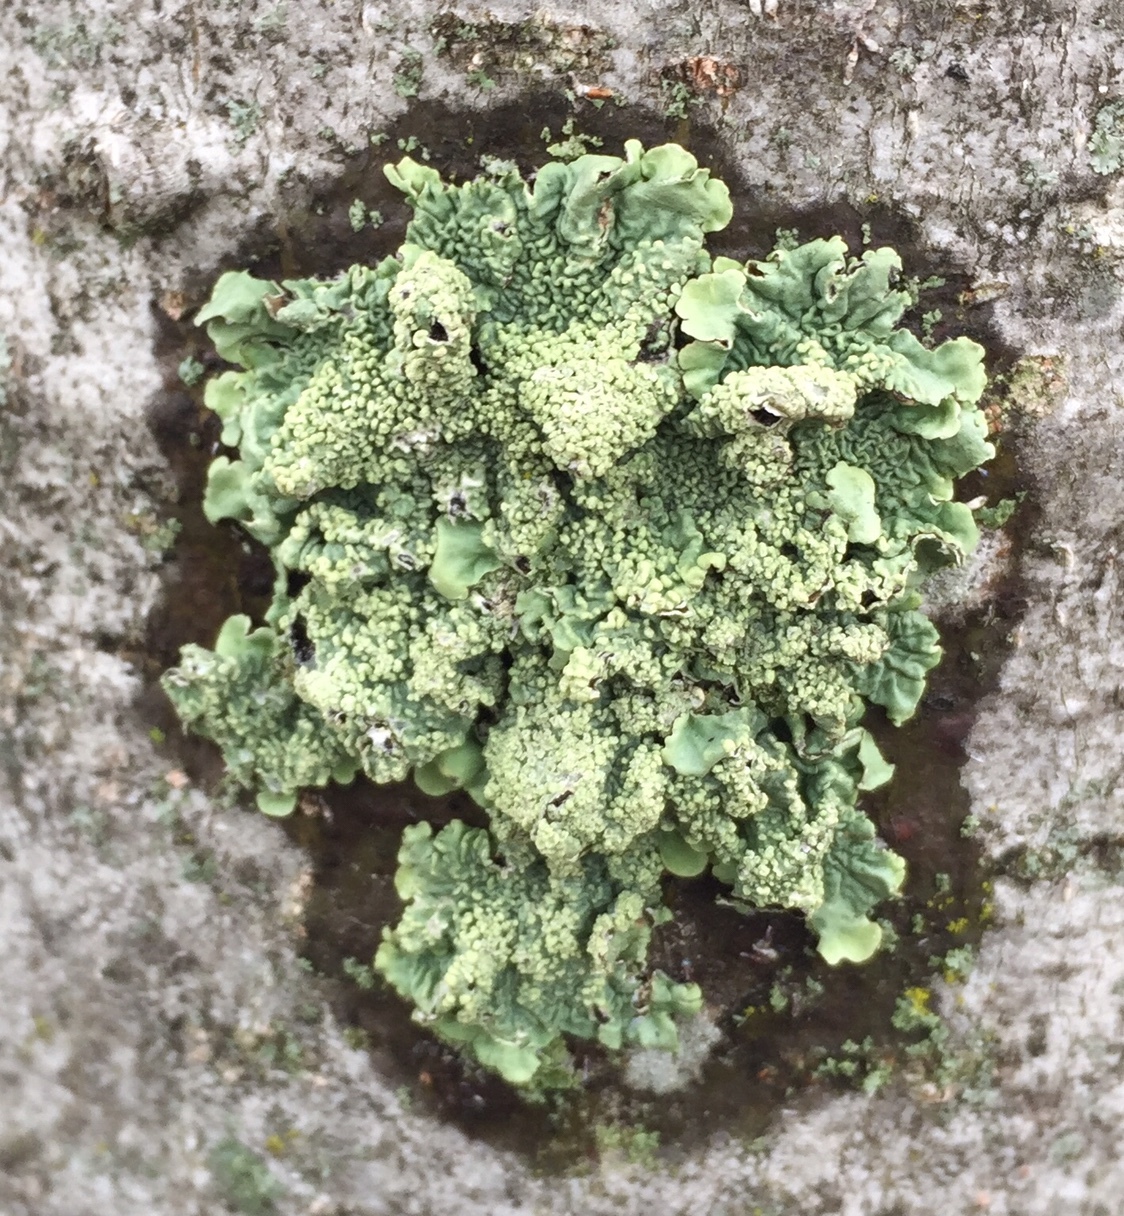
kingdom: Fungi
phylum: Ascomycota
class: Lecanoromycetes
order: Lecanorales
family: Parmeliaceae
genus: Flavoparmelia
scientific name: Flavoparmelia caperata
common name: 40-mile per hour lichen
